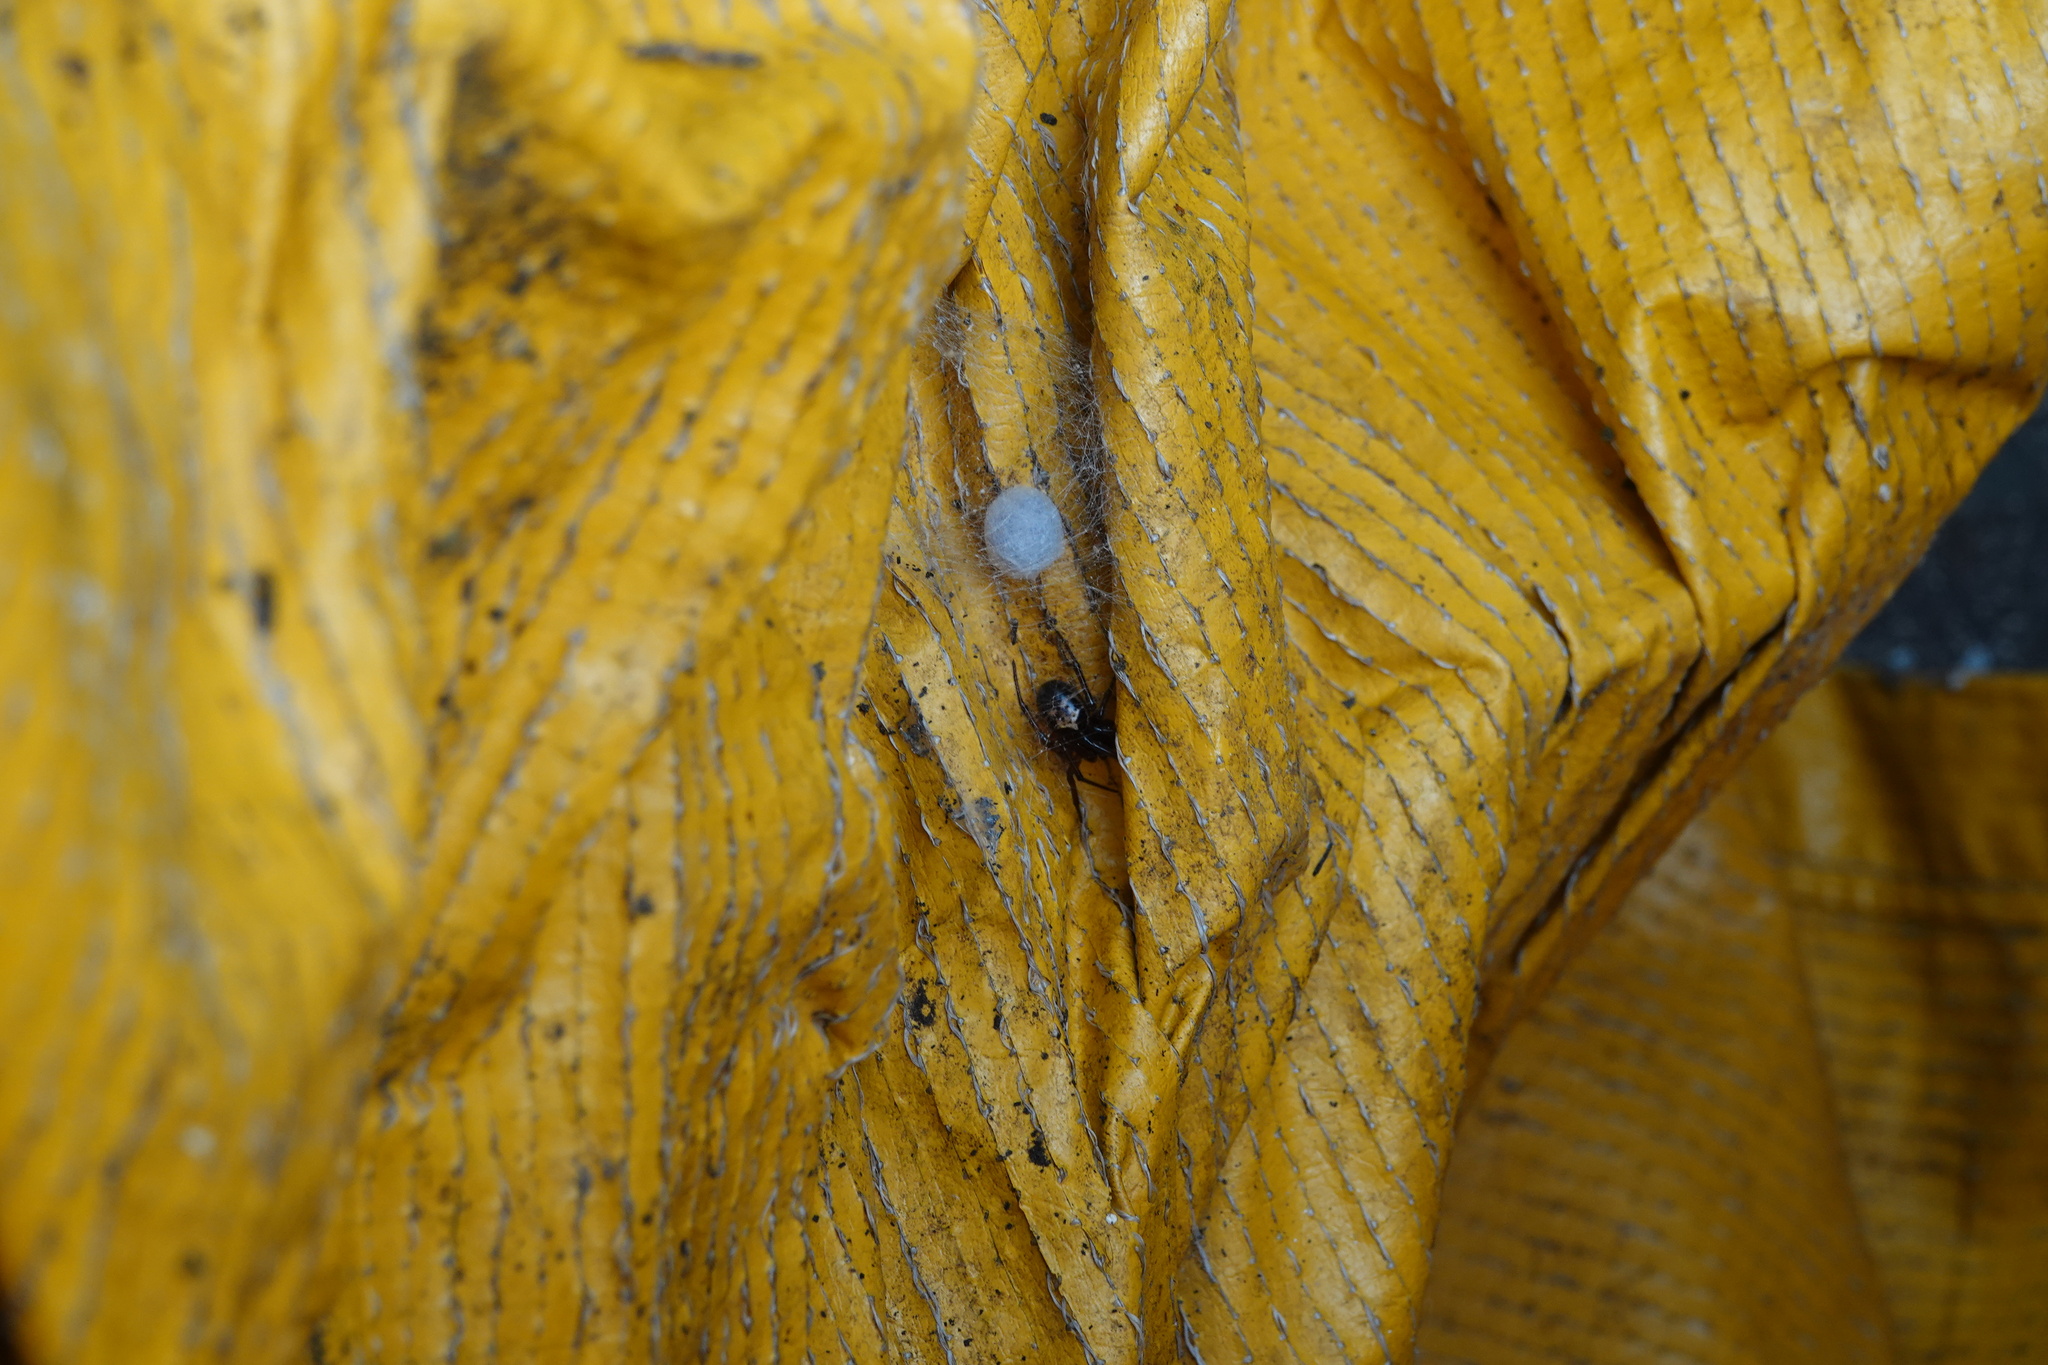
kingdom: Animalia
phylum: Arthropoda
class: Arachnida
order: Araneae
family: Theridiidae
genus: Steatoda
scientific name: Steatoda nobilis
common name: Cobweb weaver
